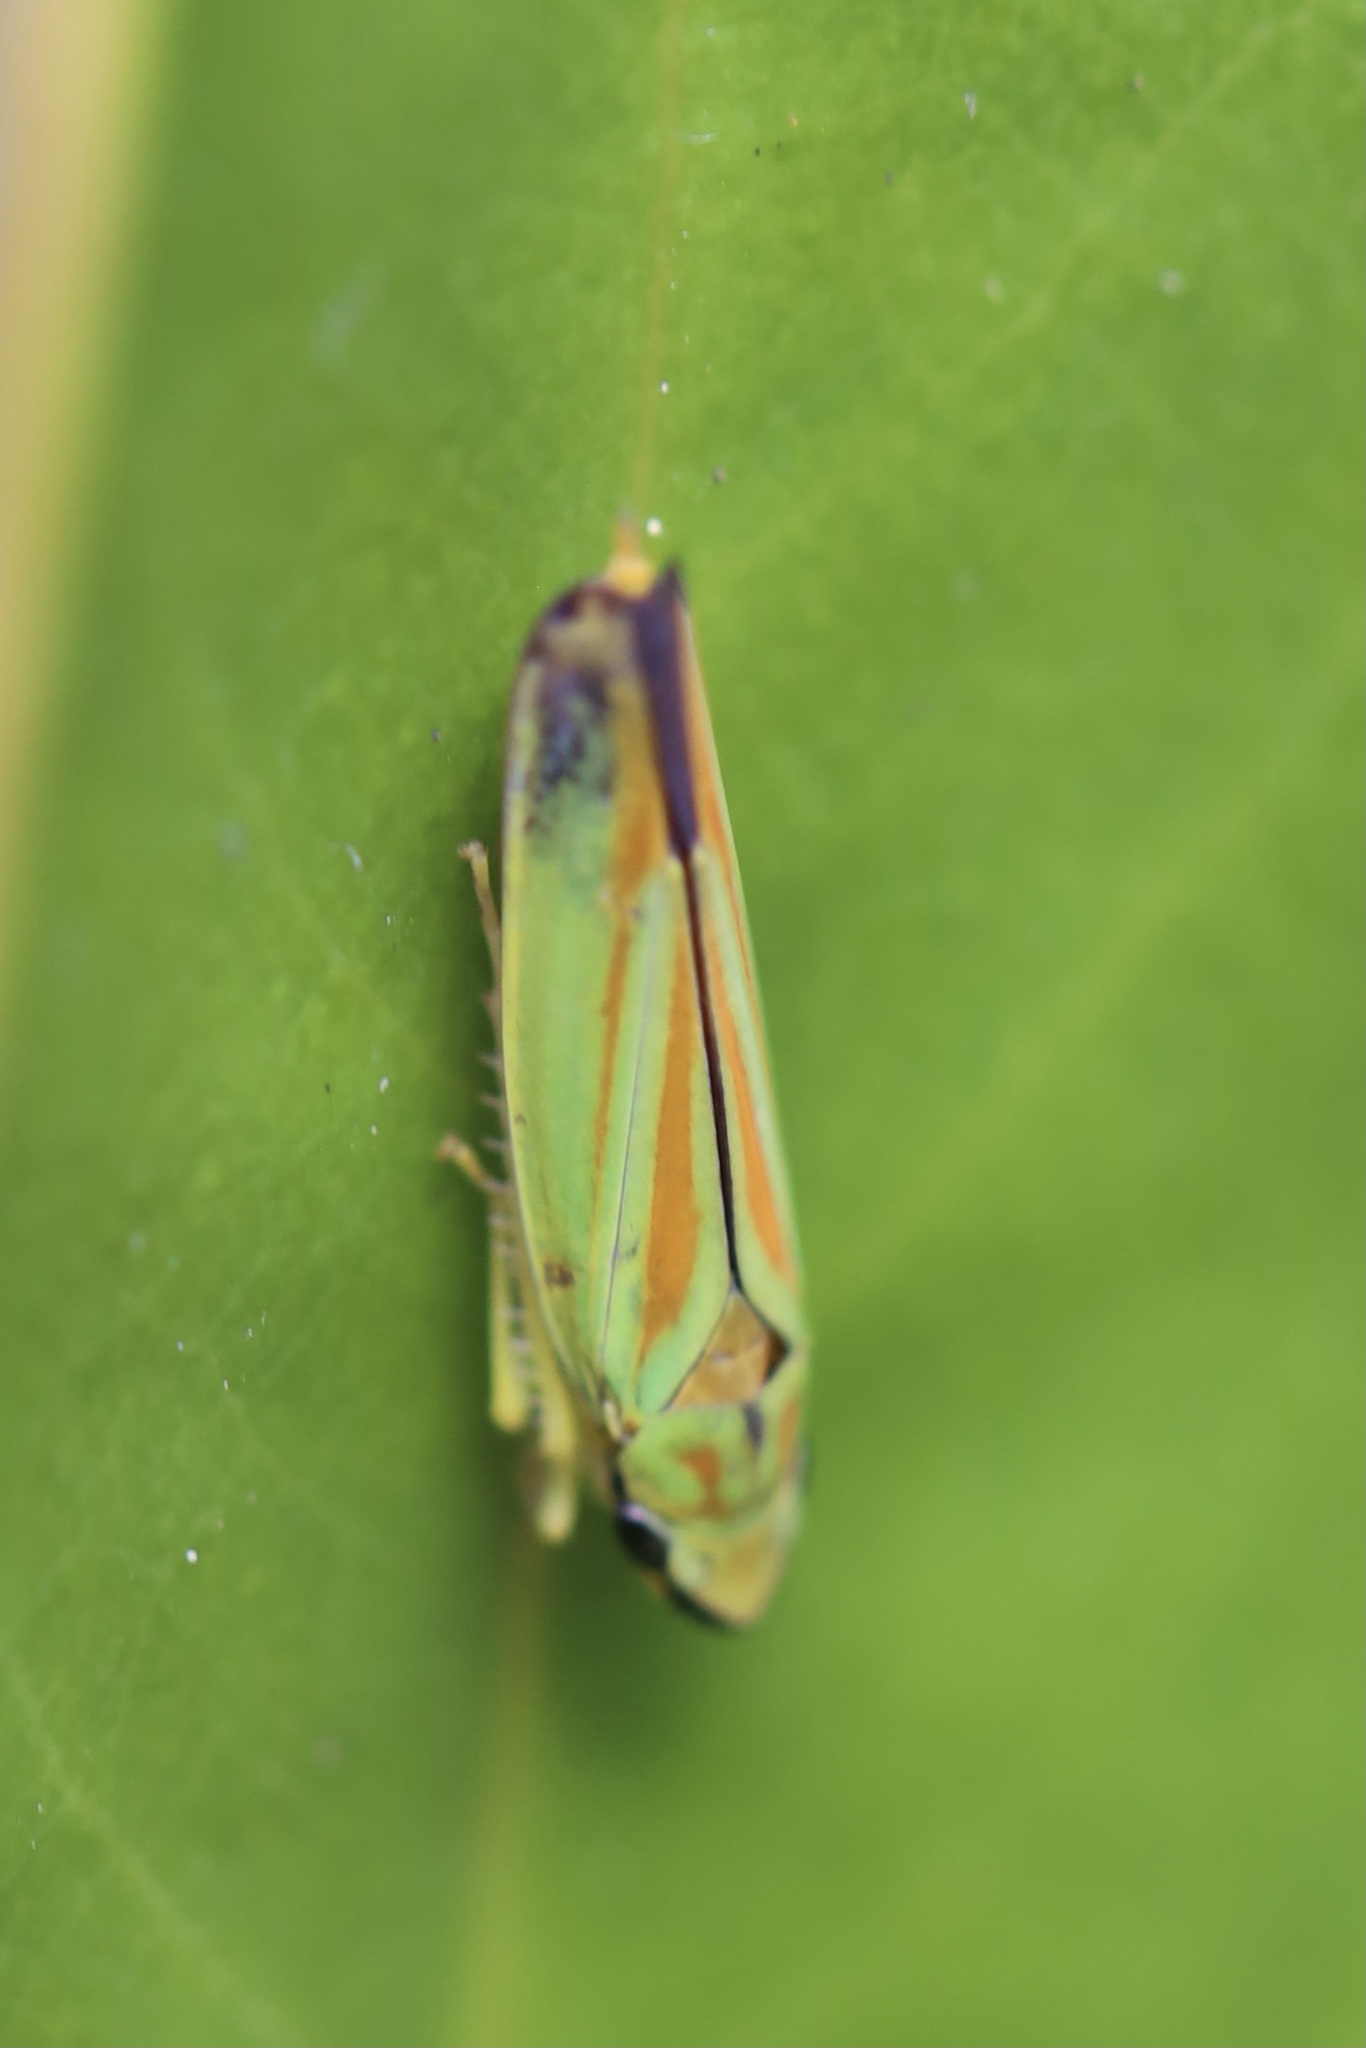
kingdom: Animalia
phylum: Arthropoda
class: Insecta
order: Hemiptera
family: Cicadellidae
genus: Graphocephala
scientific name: Graphocephala fennahi
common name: Rhododendron leafhopper
